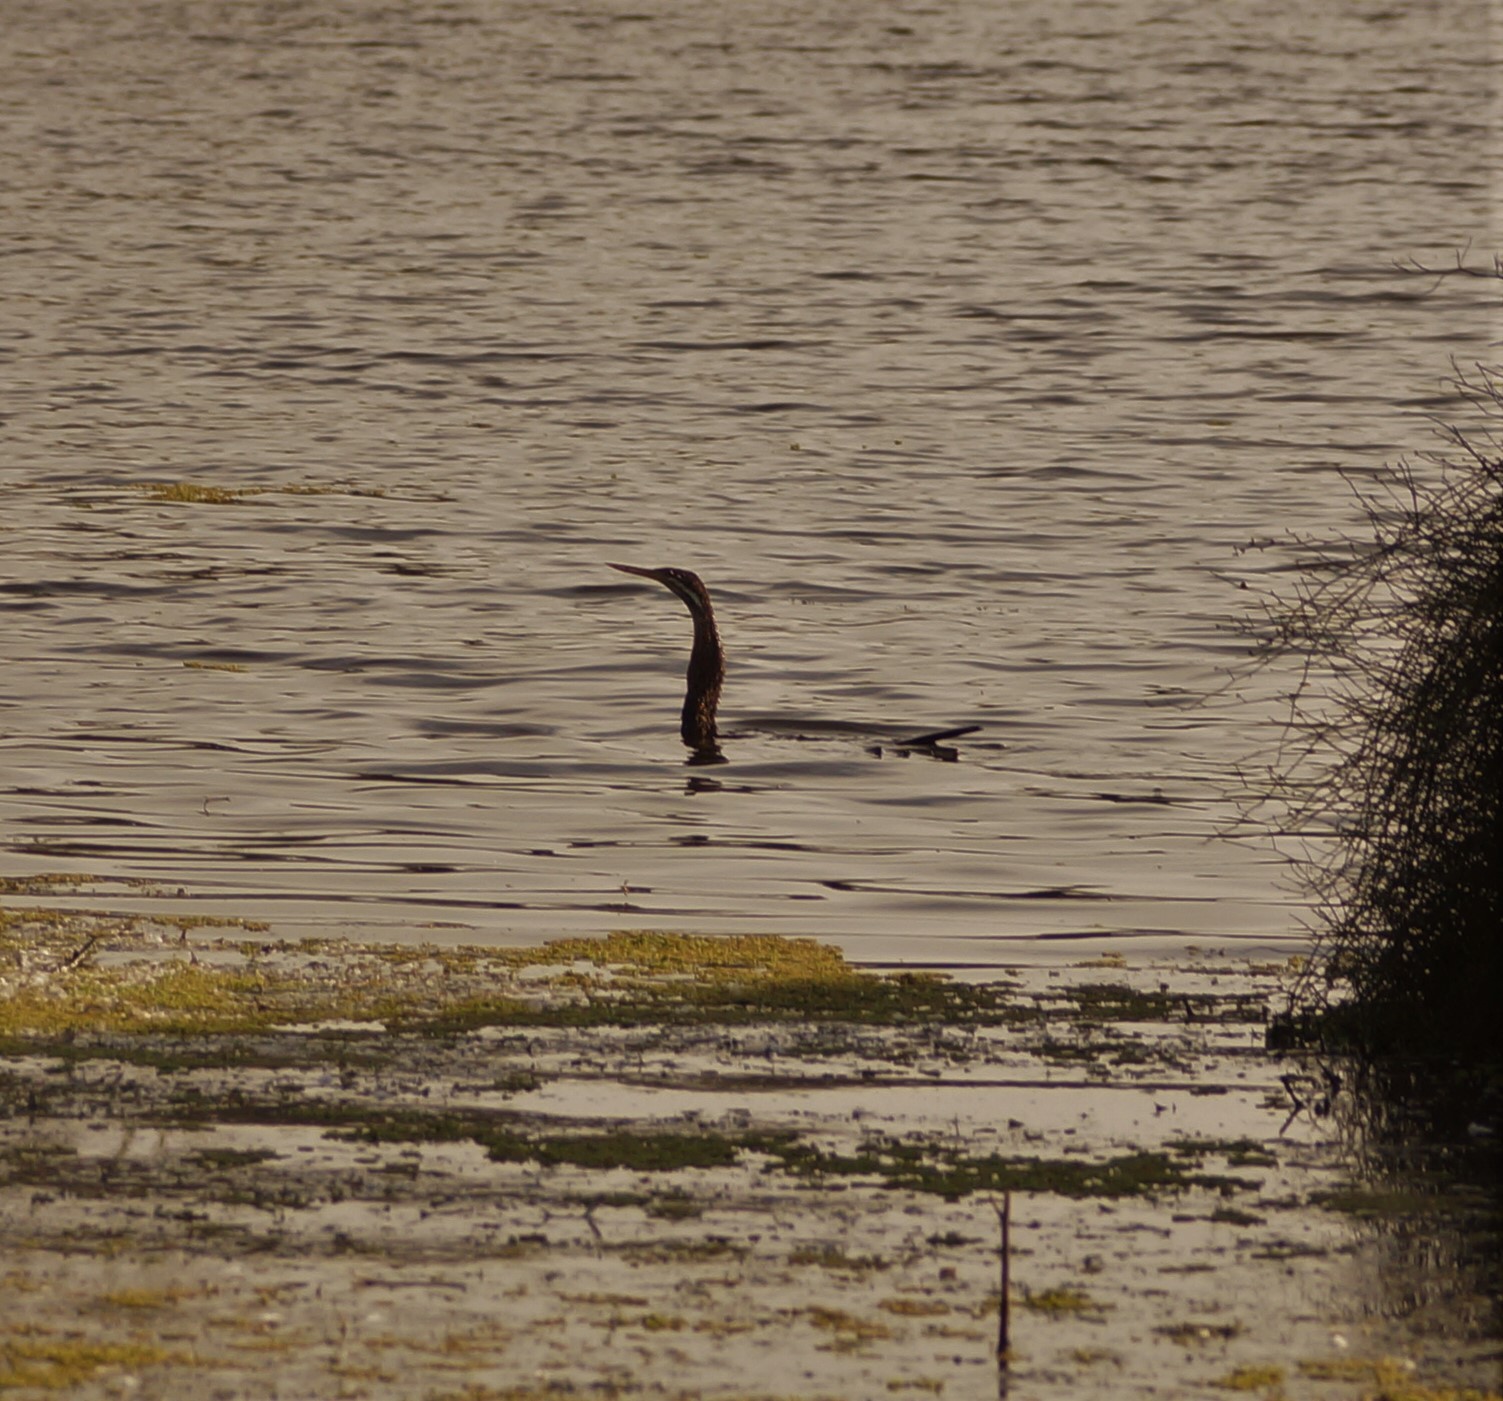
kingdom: Animalia
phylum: Chordata
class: Aves
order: Suliformes
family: Anhingidae
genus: Anhinga
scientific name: Anhinga novaehollandiae
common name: Australasian darter
